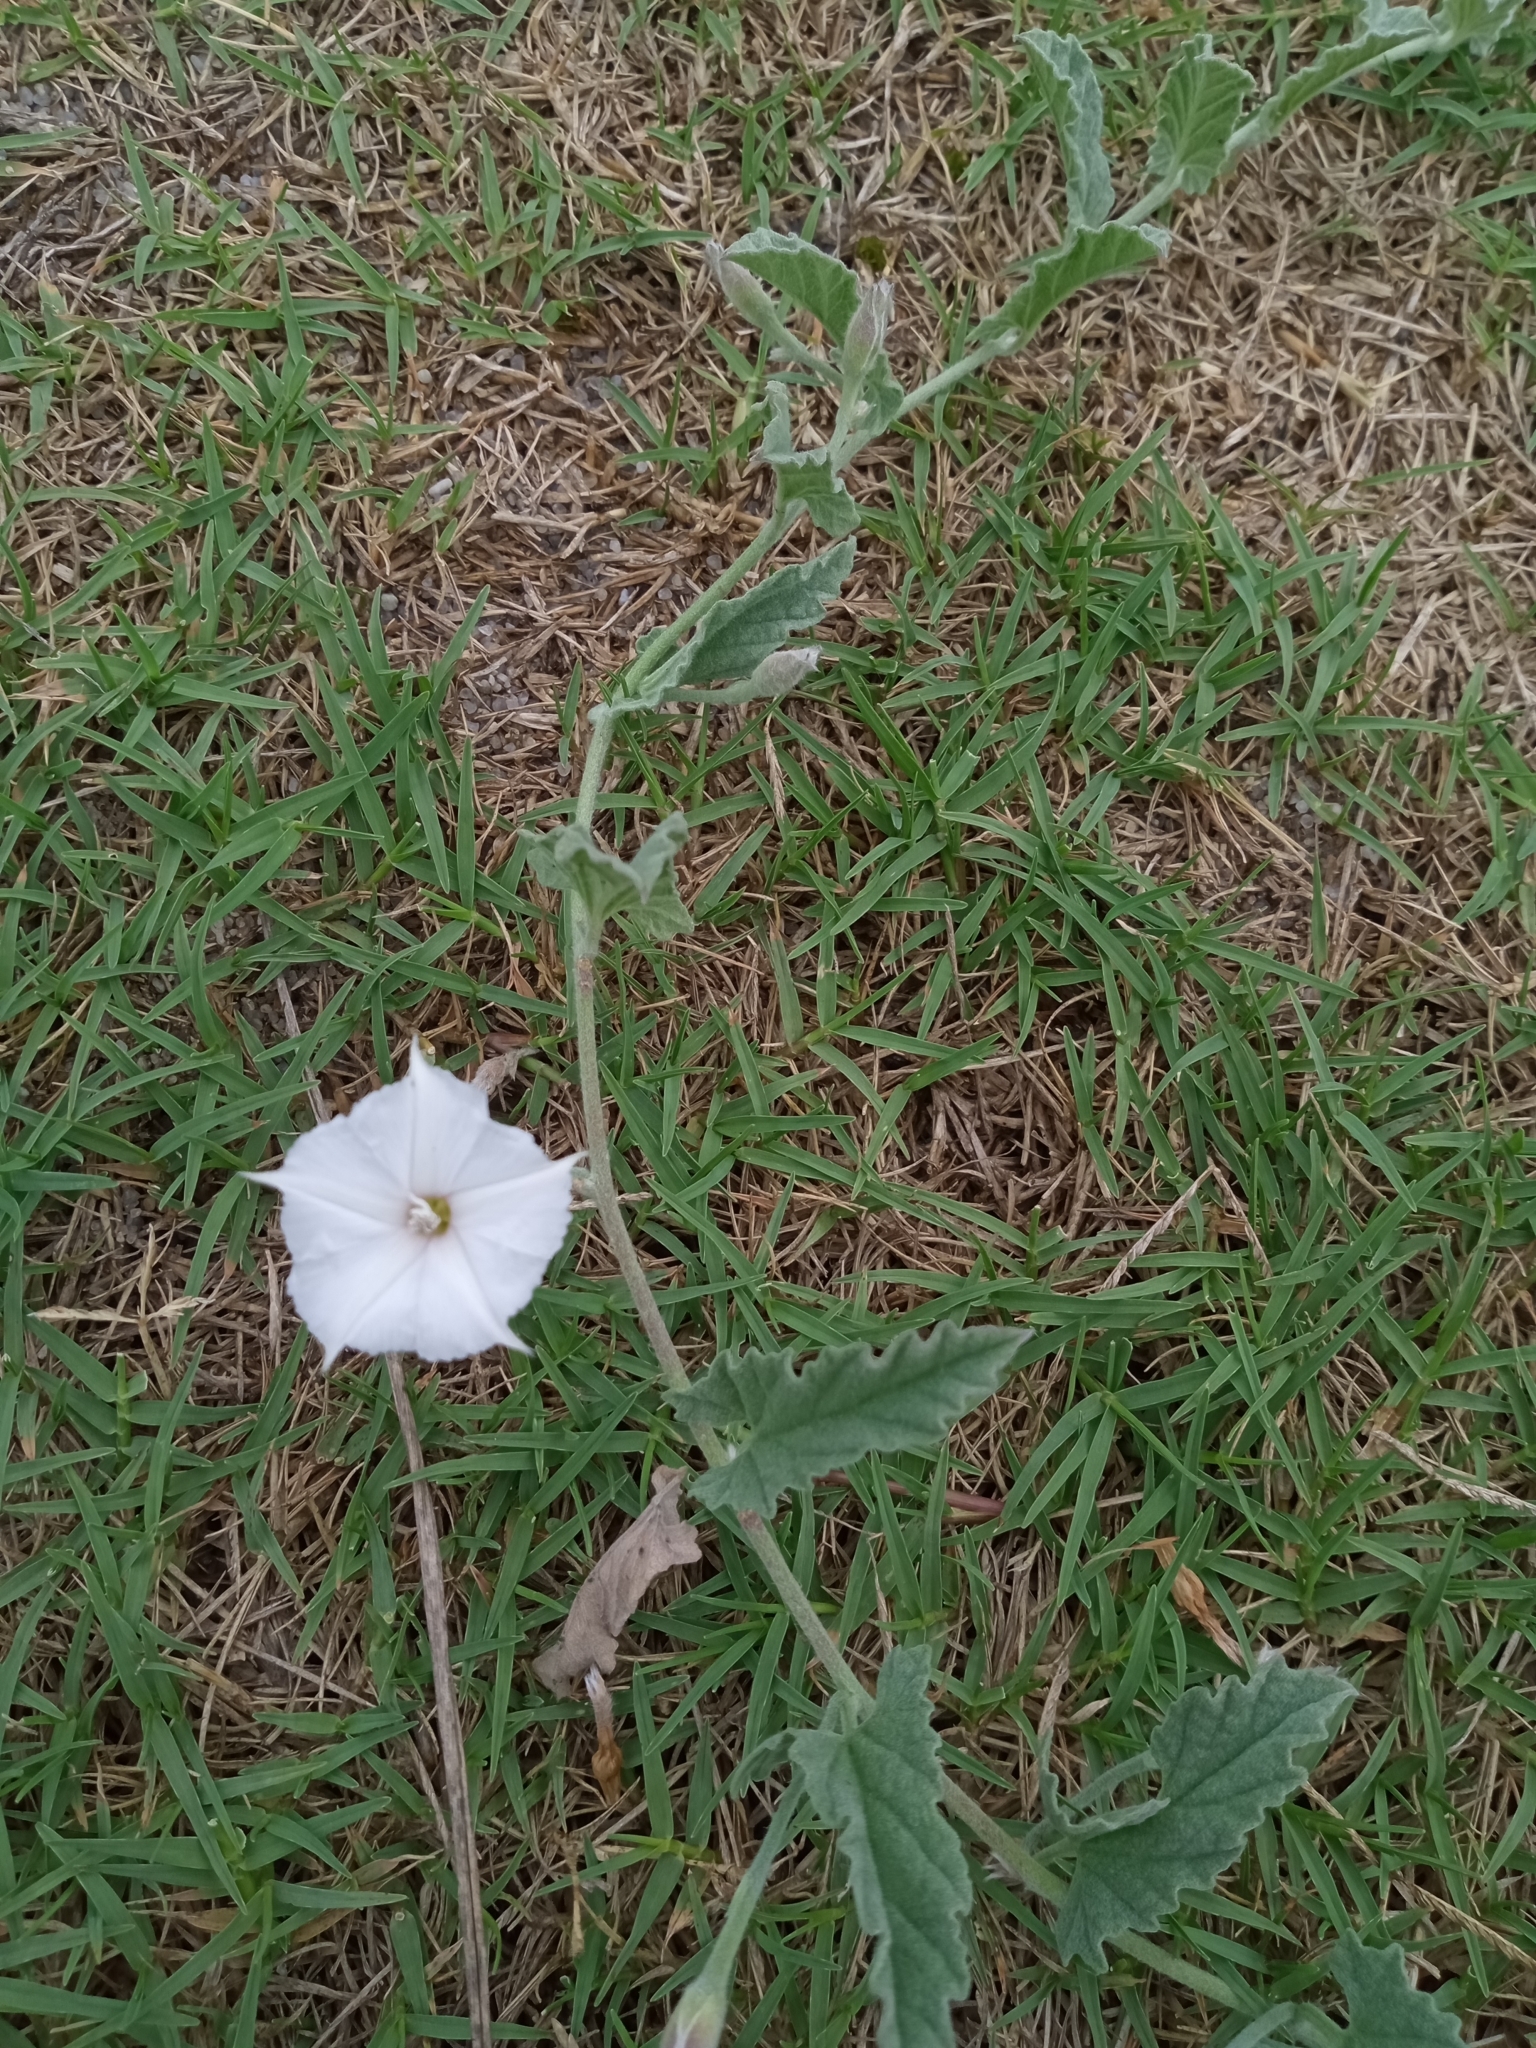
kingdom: Plantae
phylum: Tracheophyta
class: Magnoliopsida
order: Solanales
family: Convolvulaceae
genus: Convolvulus
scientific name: Convolvulus hermanniae
